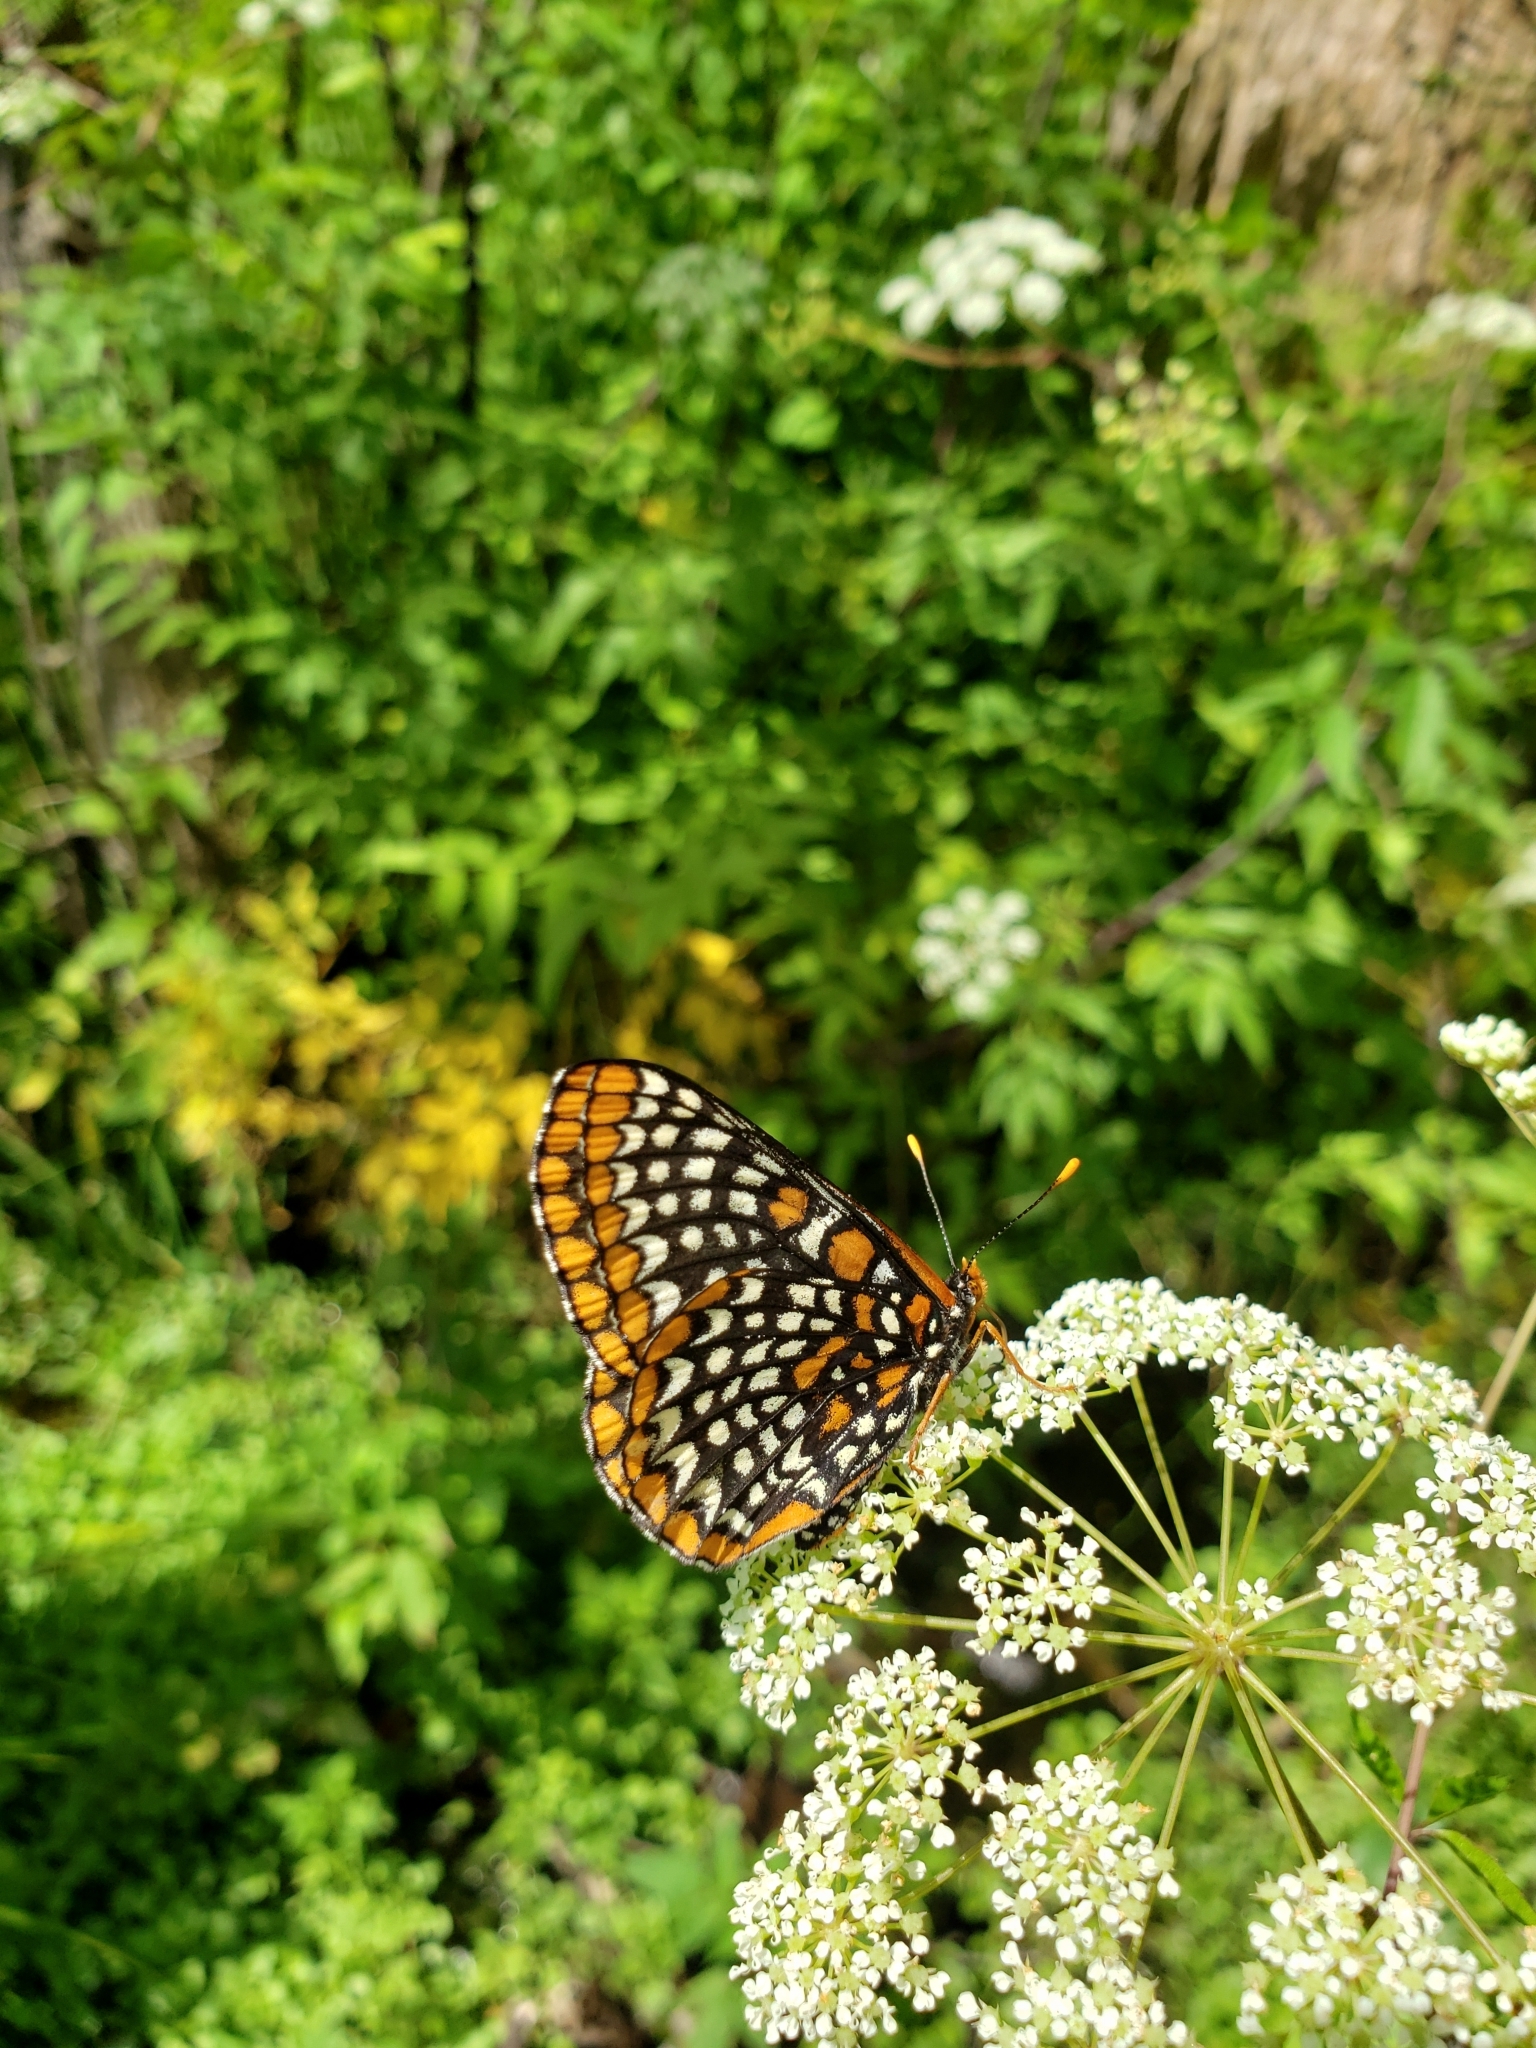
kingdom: Animalia
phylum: Arthropoda
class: Insecta
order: Lepidoptera
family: Nymphalidae
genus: Euphydryas
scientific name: Euphydryas phaeton
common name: Baltimore checkerspot
